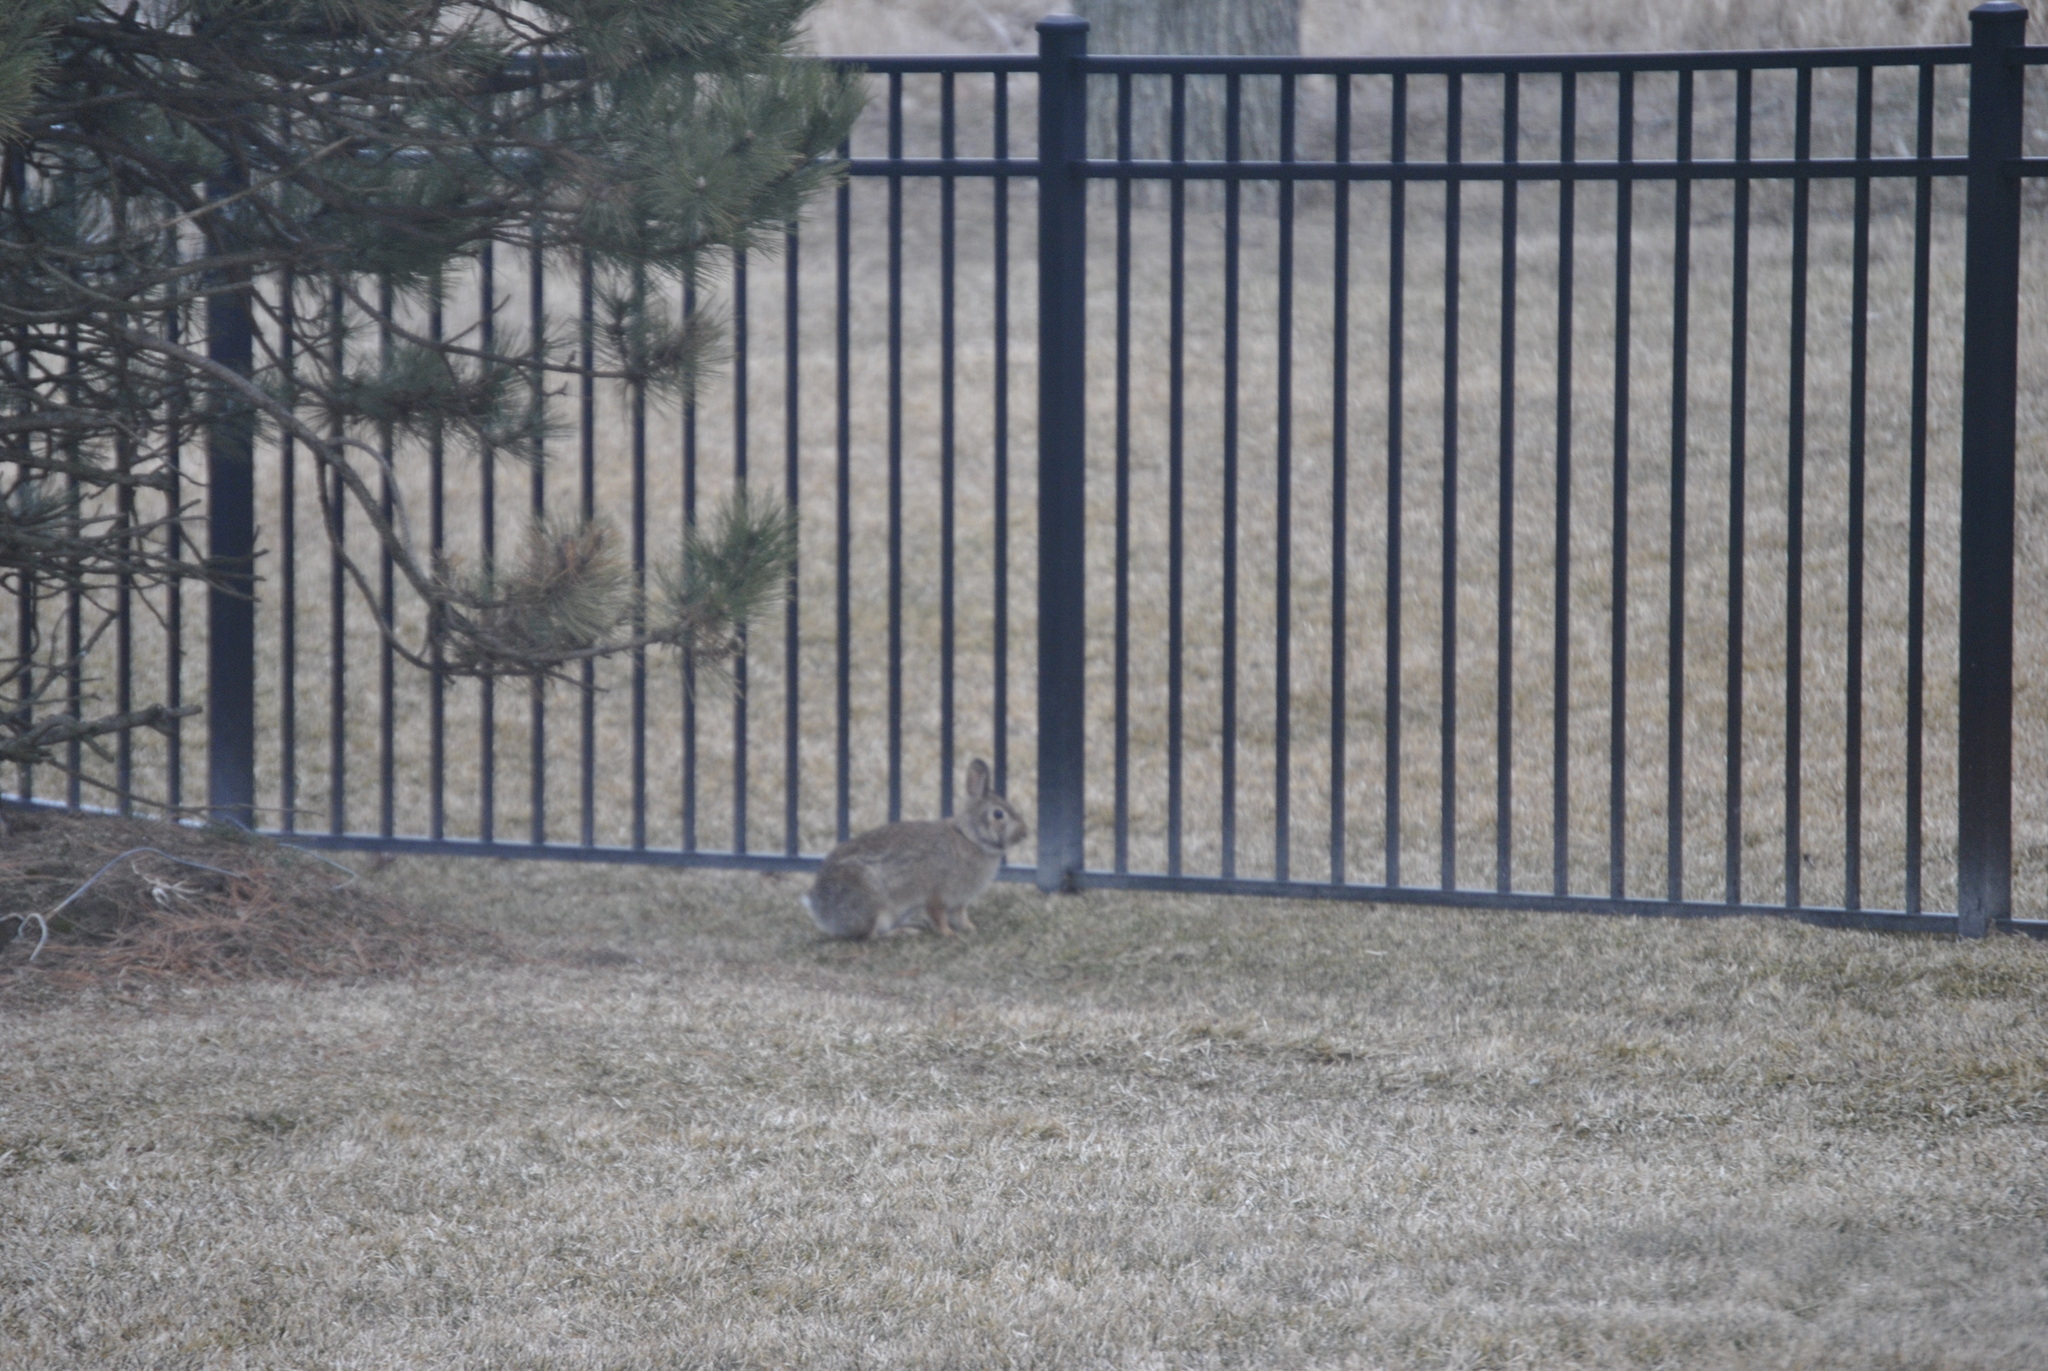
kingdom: Animalia
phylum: Chordata
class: Mammalia
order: Lagomorpha
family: Leporidae
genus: Sylvilagus
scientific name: Sylvilagus floridanus
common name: Eastern cottontail
